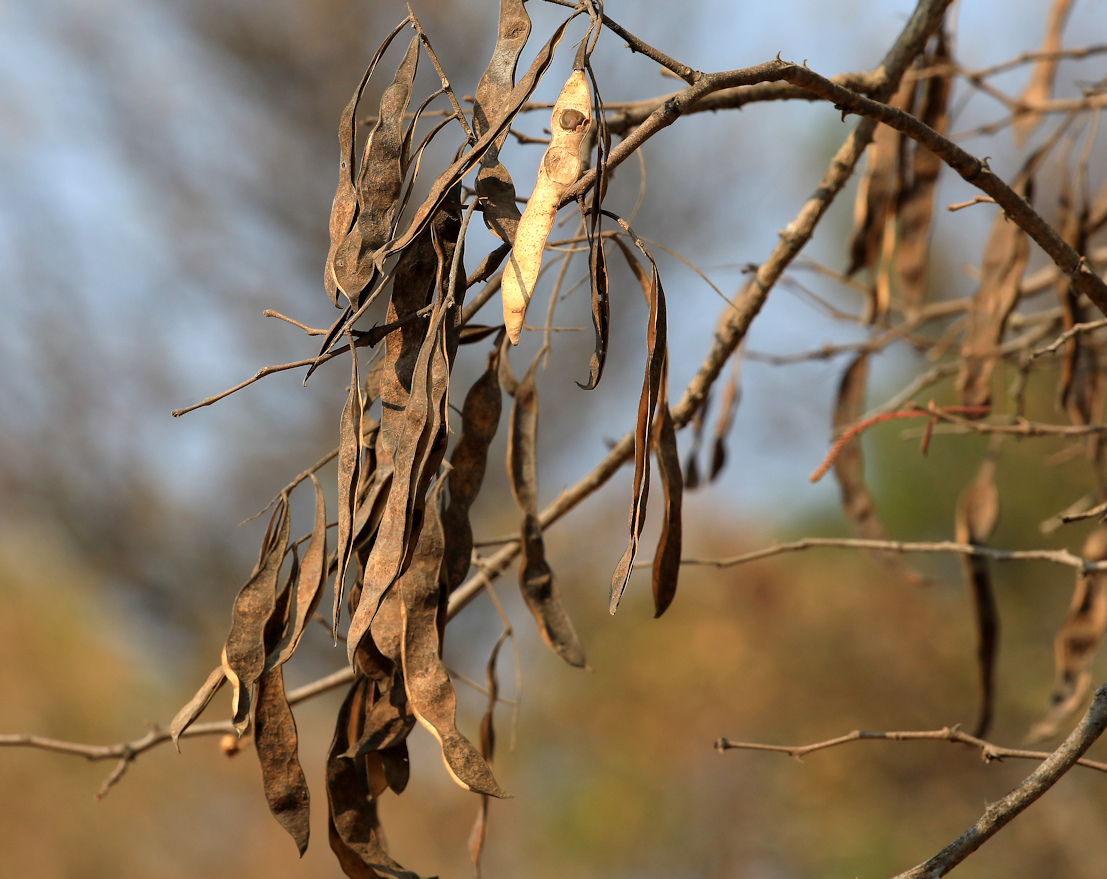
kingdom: Plantae
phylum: Tracheophyta
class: Magnoliopsida
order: Fabales
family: Fabaceae
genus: Senegalia
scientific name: Senegalia nigrescens
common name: Knobthorn
